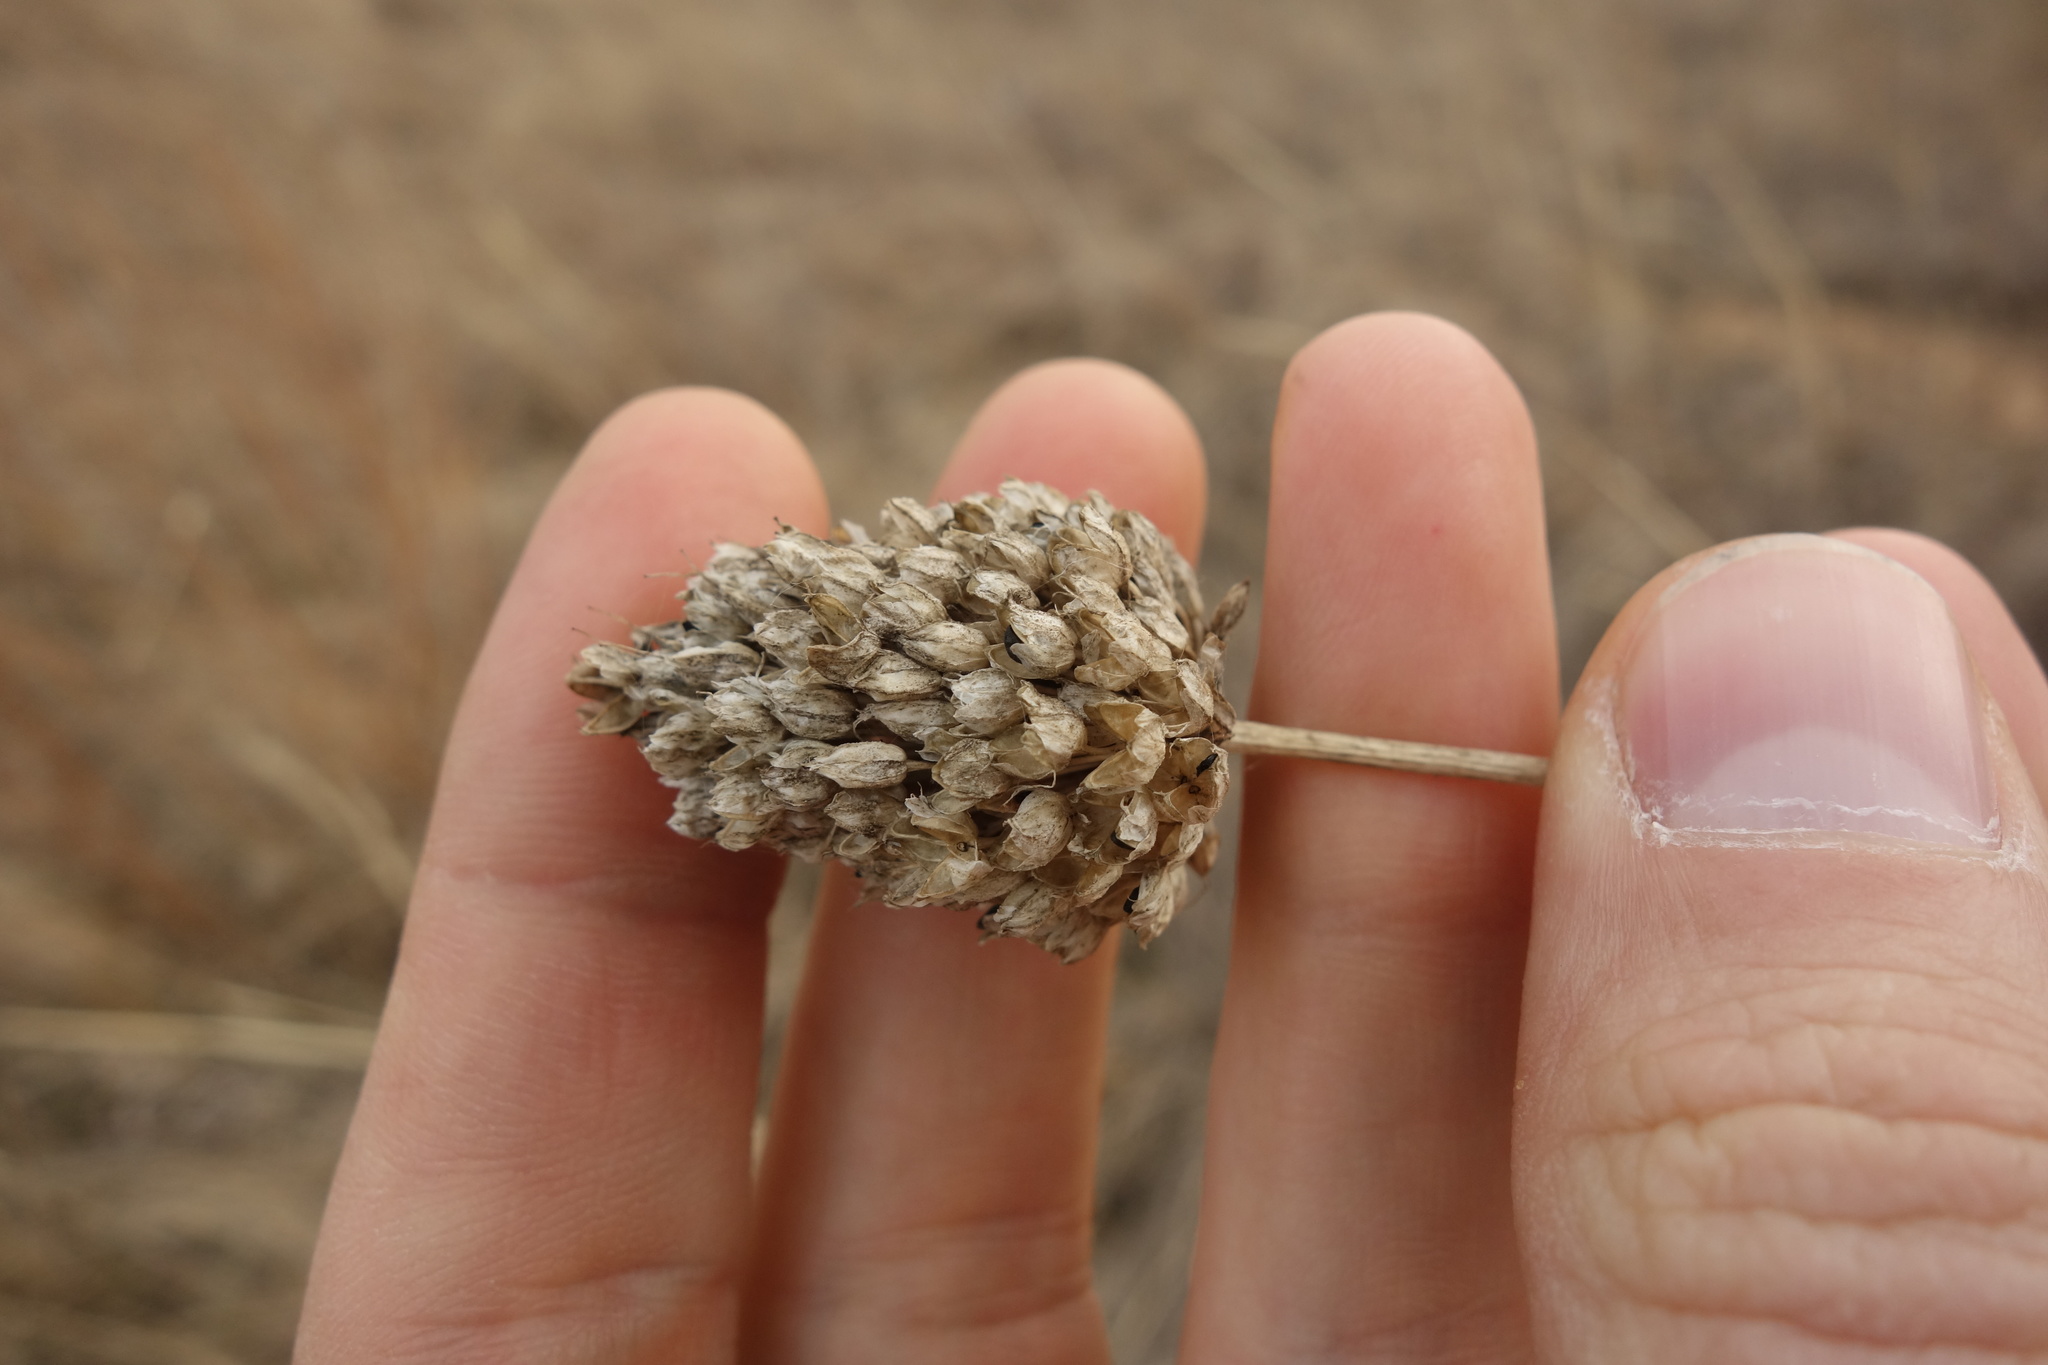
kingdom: Plantae
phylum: Tracheophyta
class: Liliopsida
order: Asparagales
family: Amaryllidaceae
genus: Allium
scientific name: Allium sphaerocephalon
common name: Round-headed leek
